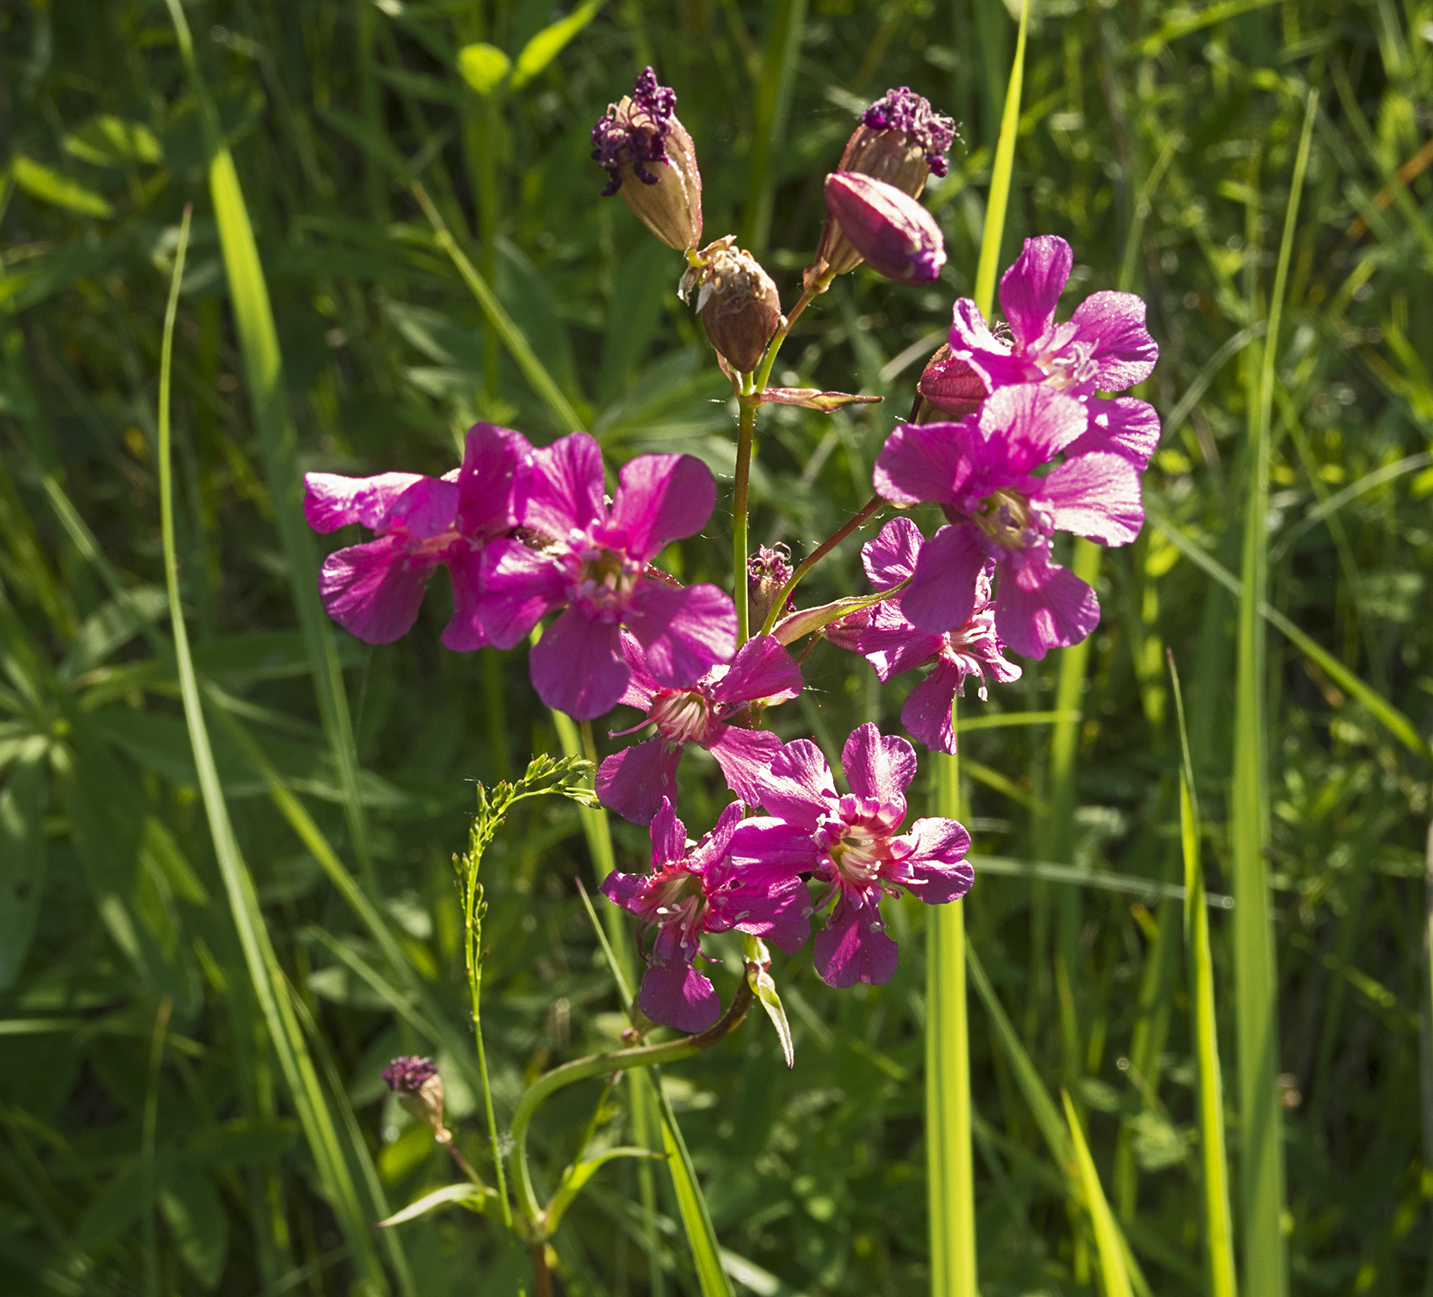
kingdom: Plantae
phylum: Tracheophyta
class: Magnoliopsida
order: Caryophyllales
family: Caryophyllaceae
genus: Viscaria
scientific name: Viscaria vulgaris
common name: Clammy campion
